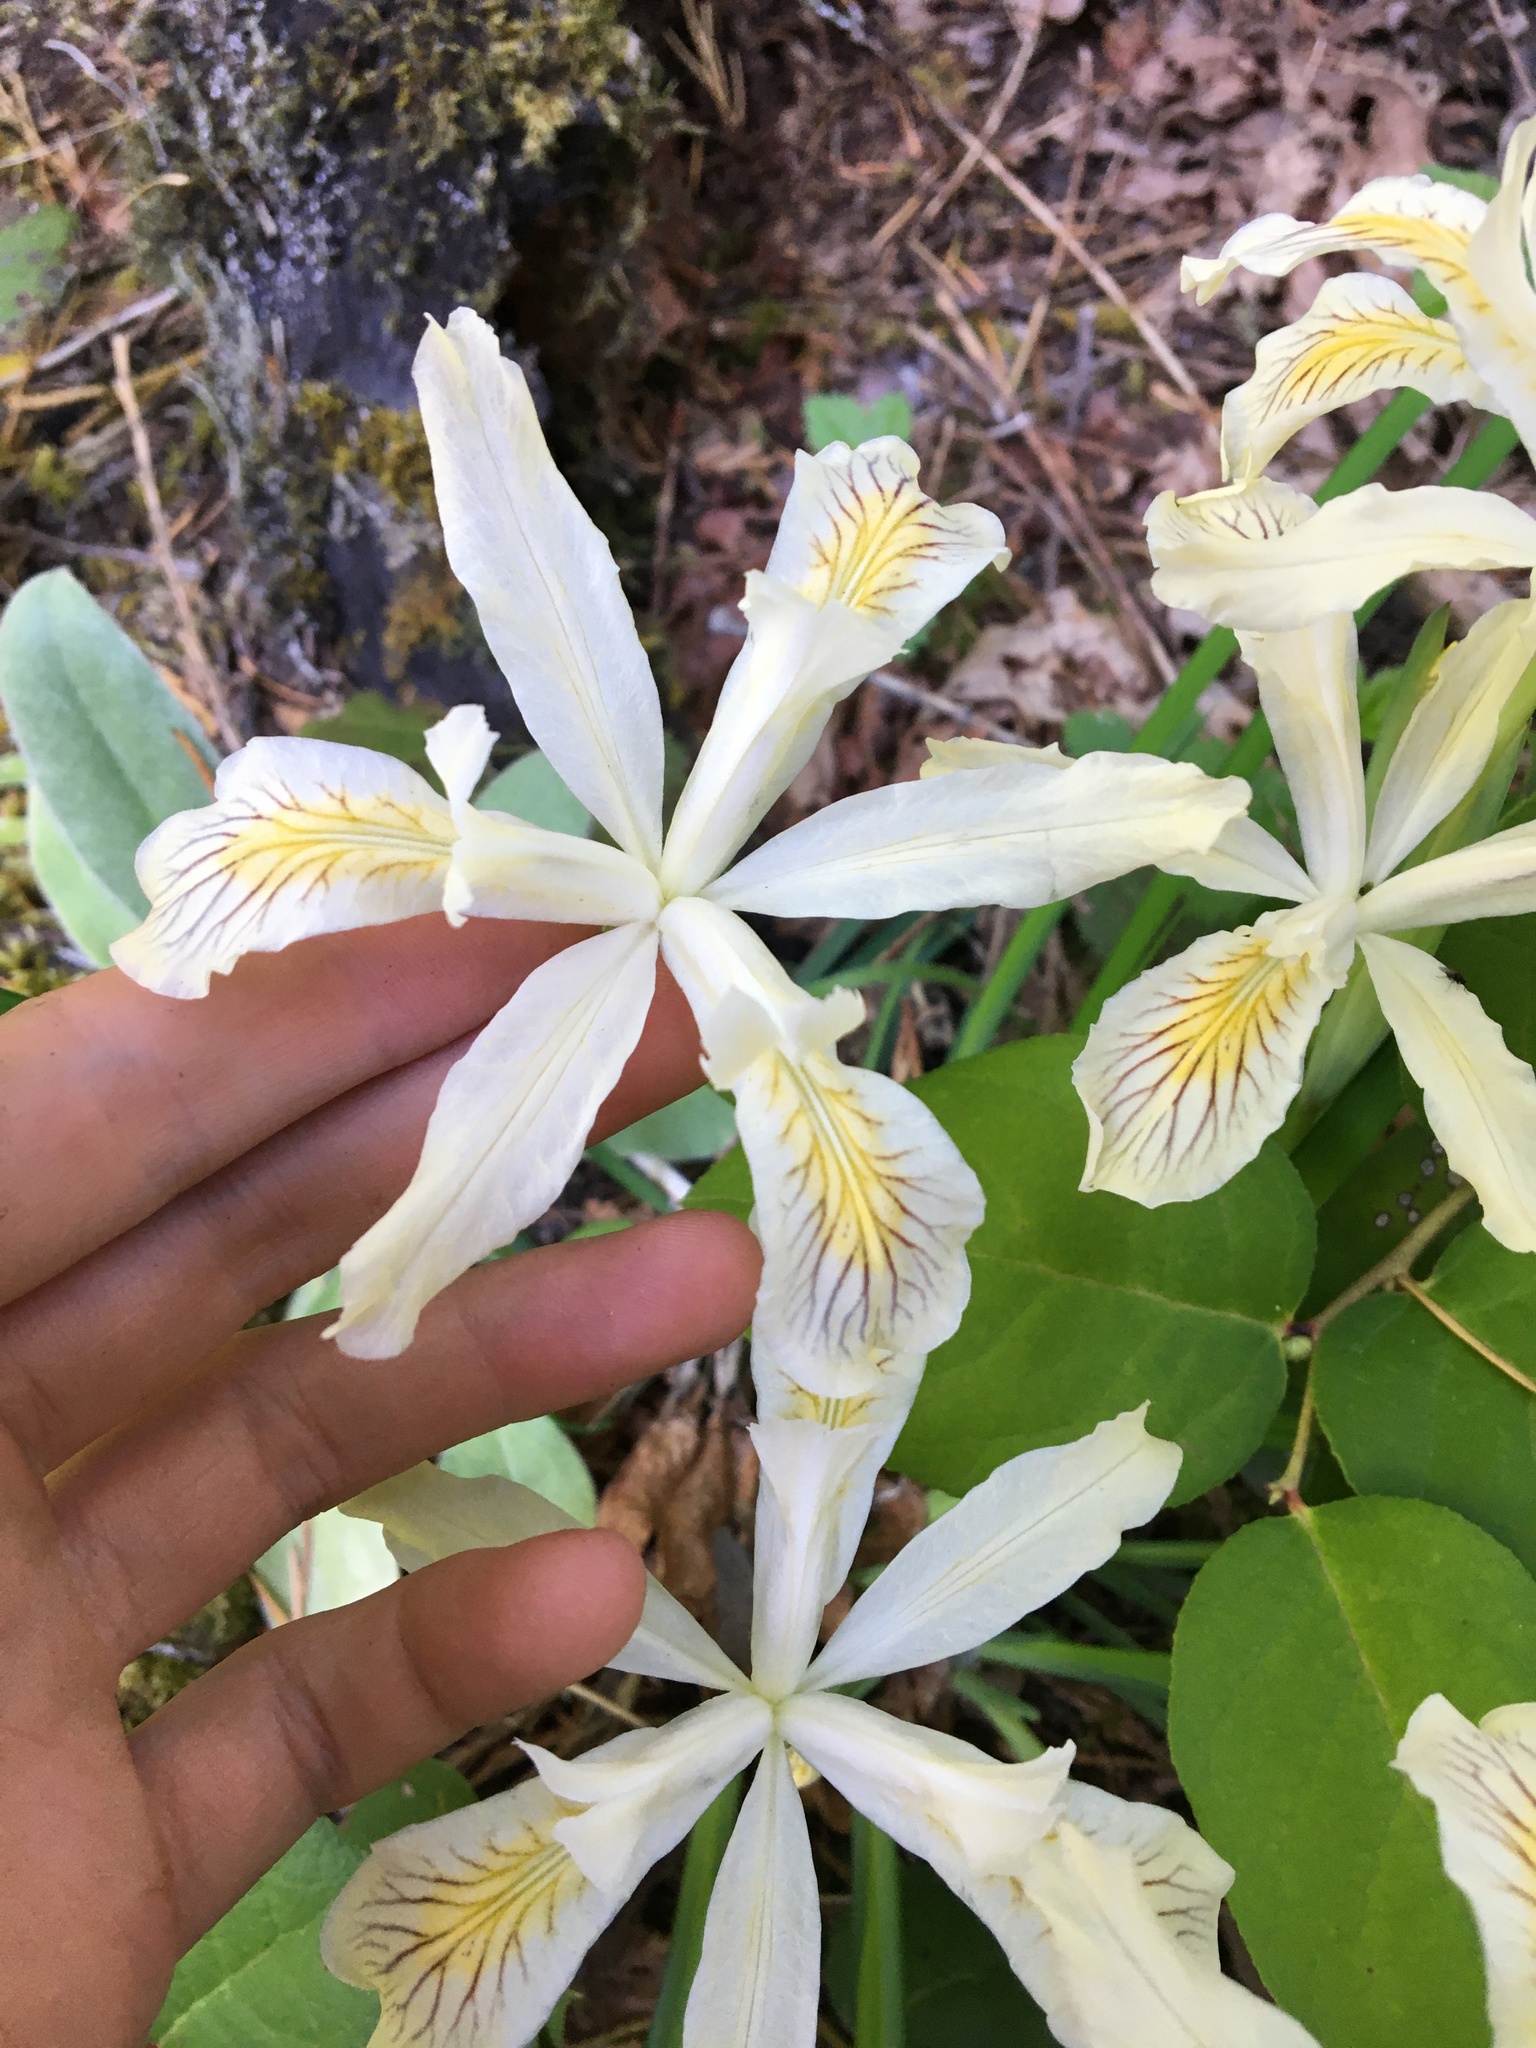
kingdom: Plantae
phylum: Tracheophyta
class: Liliopsida
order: Asparagales
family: Iridaceae
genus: Iris
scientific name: Iris chrysophylla
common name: Yellow-leaf iris
